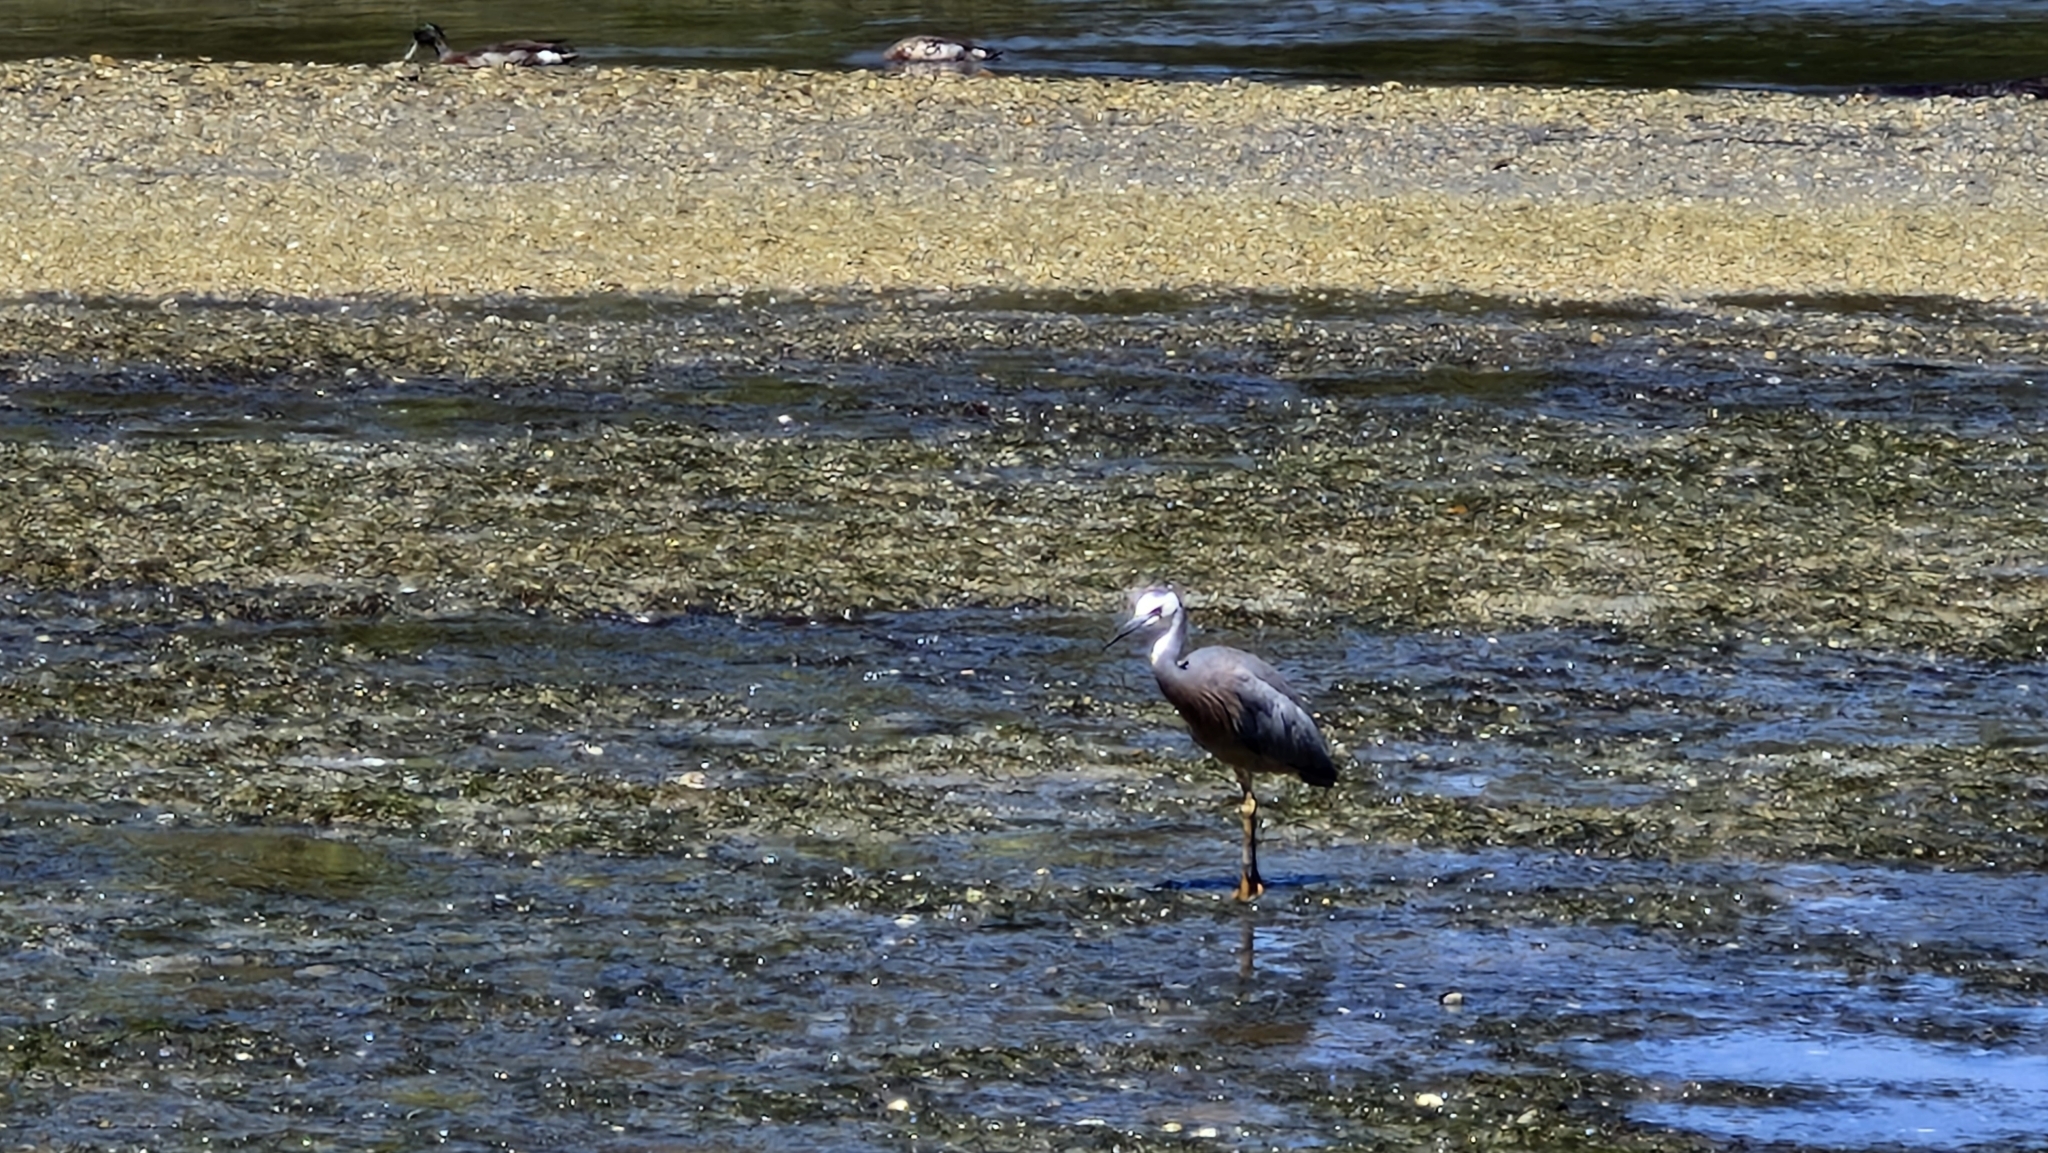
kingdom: Animalia
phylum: Chordata
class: Aves
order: Pelecaniformes
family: Ardeidae
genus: Egretta
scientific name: Egretta novaehollandiae
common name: White-faced heron
